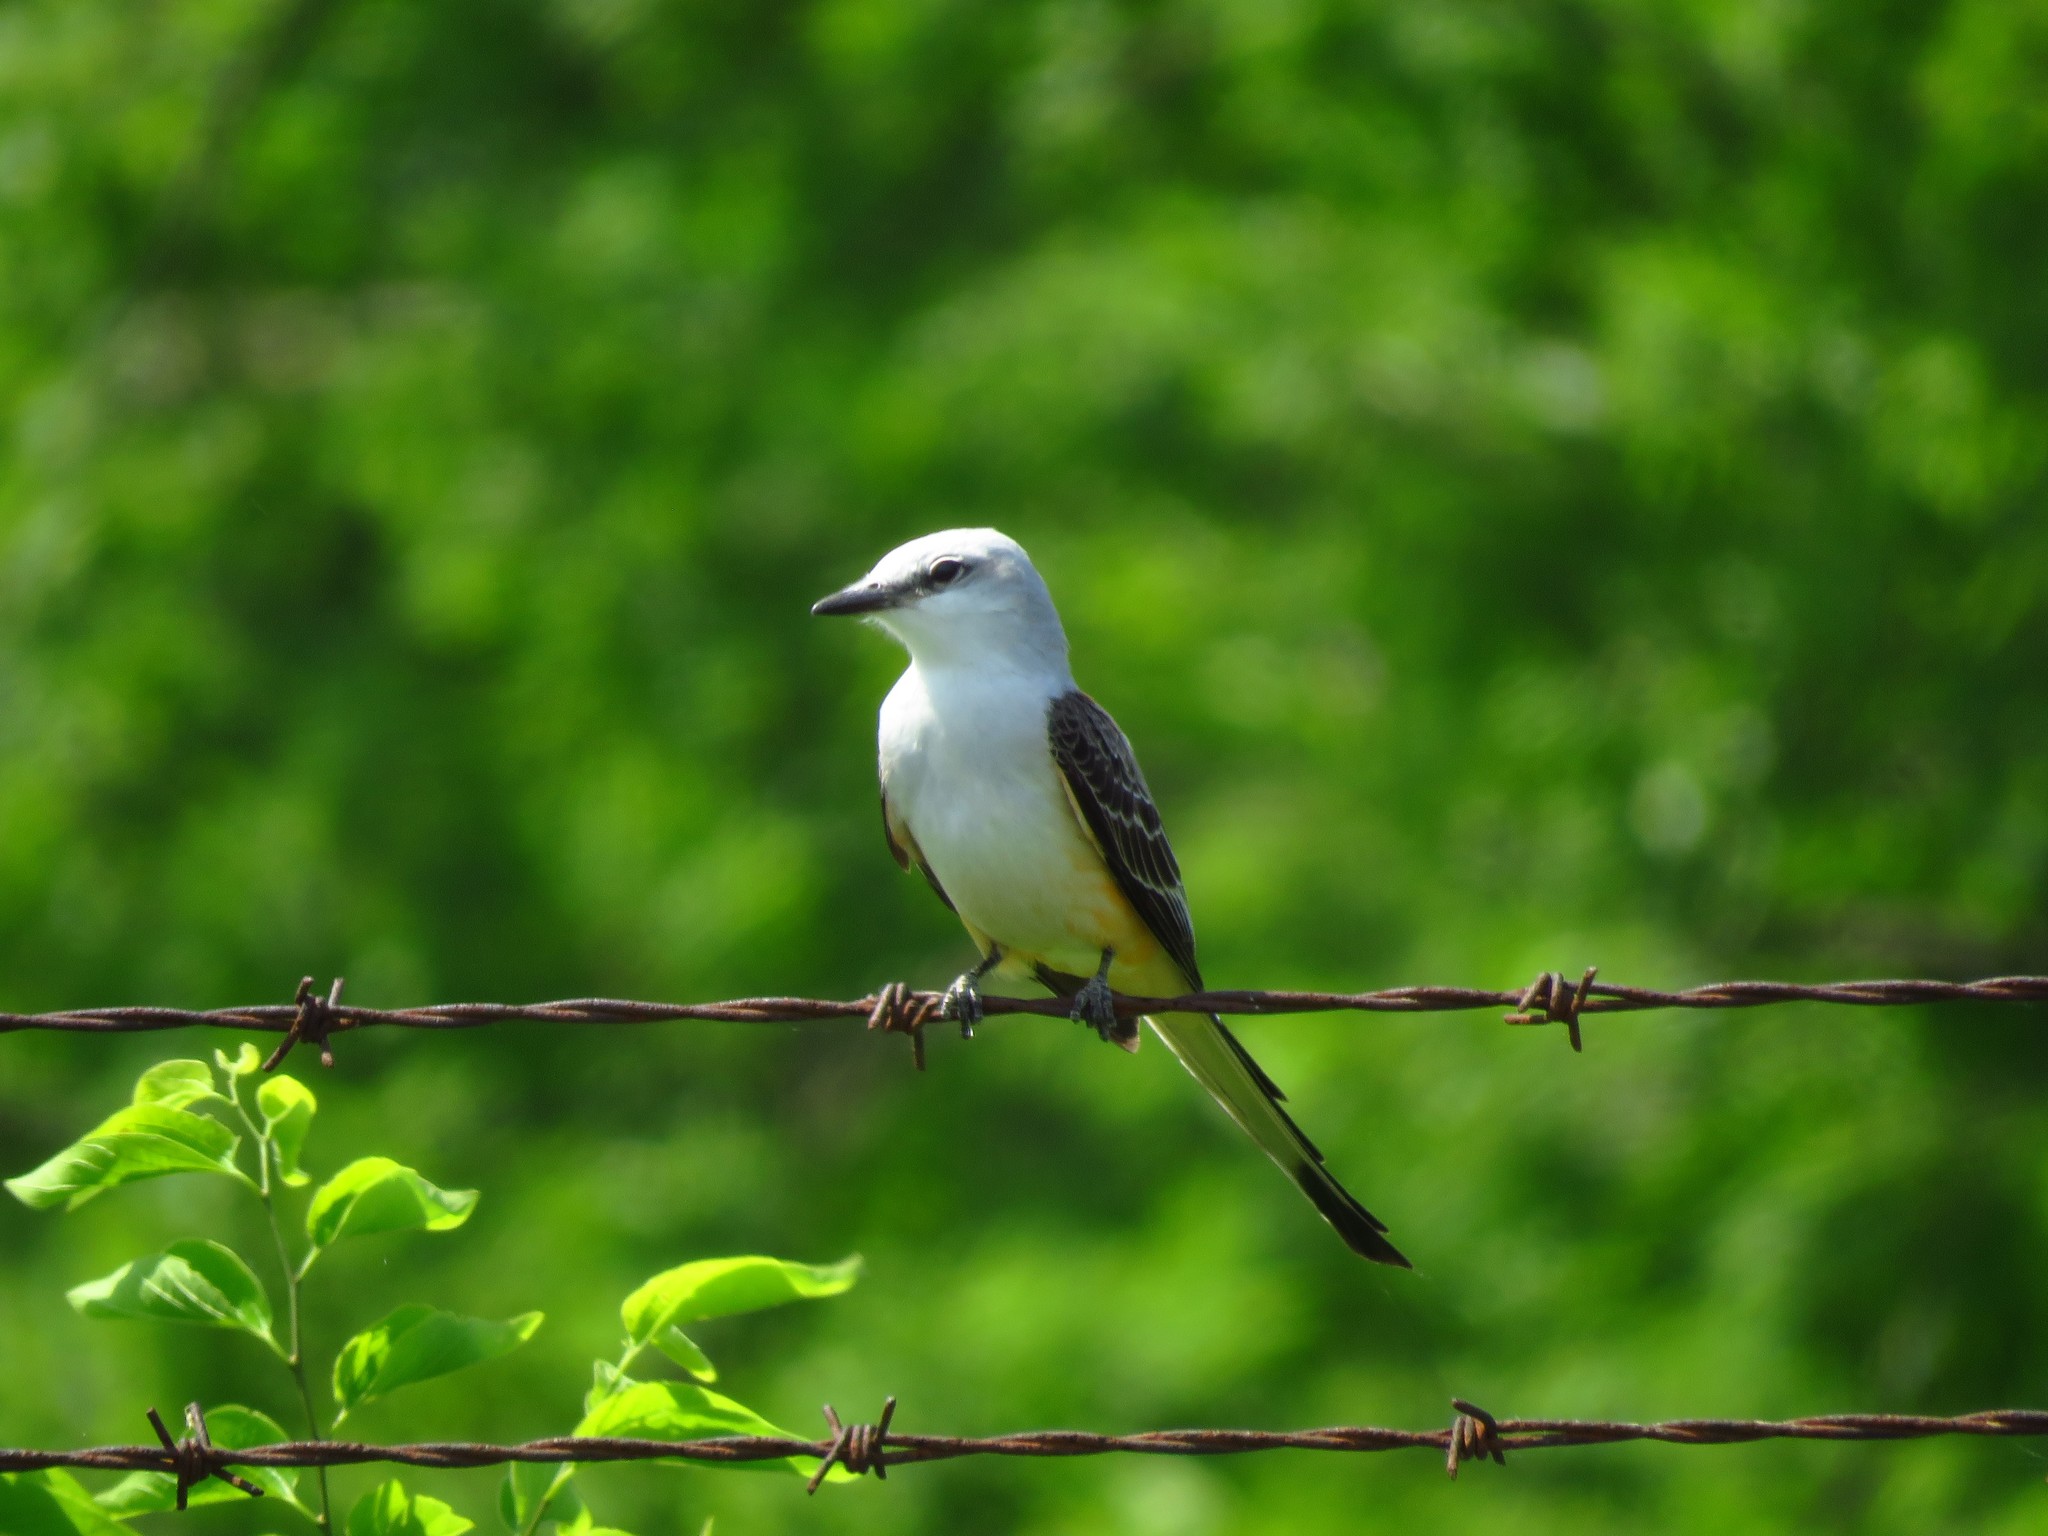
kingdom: Animalia
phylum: Chordata
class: Aves
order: Passeriformes
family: Tyrannidae
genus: Tyrannus
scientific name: Tyrannus forficatus
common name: Scissor-tailed flycatcher
